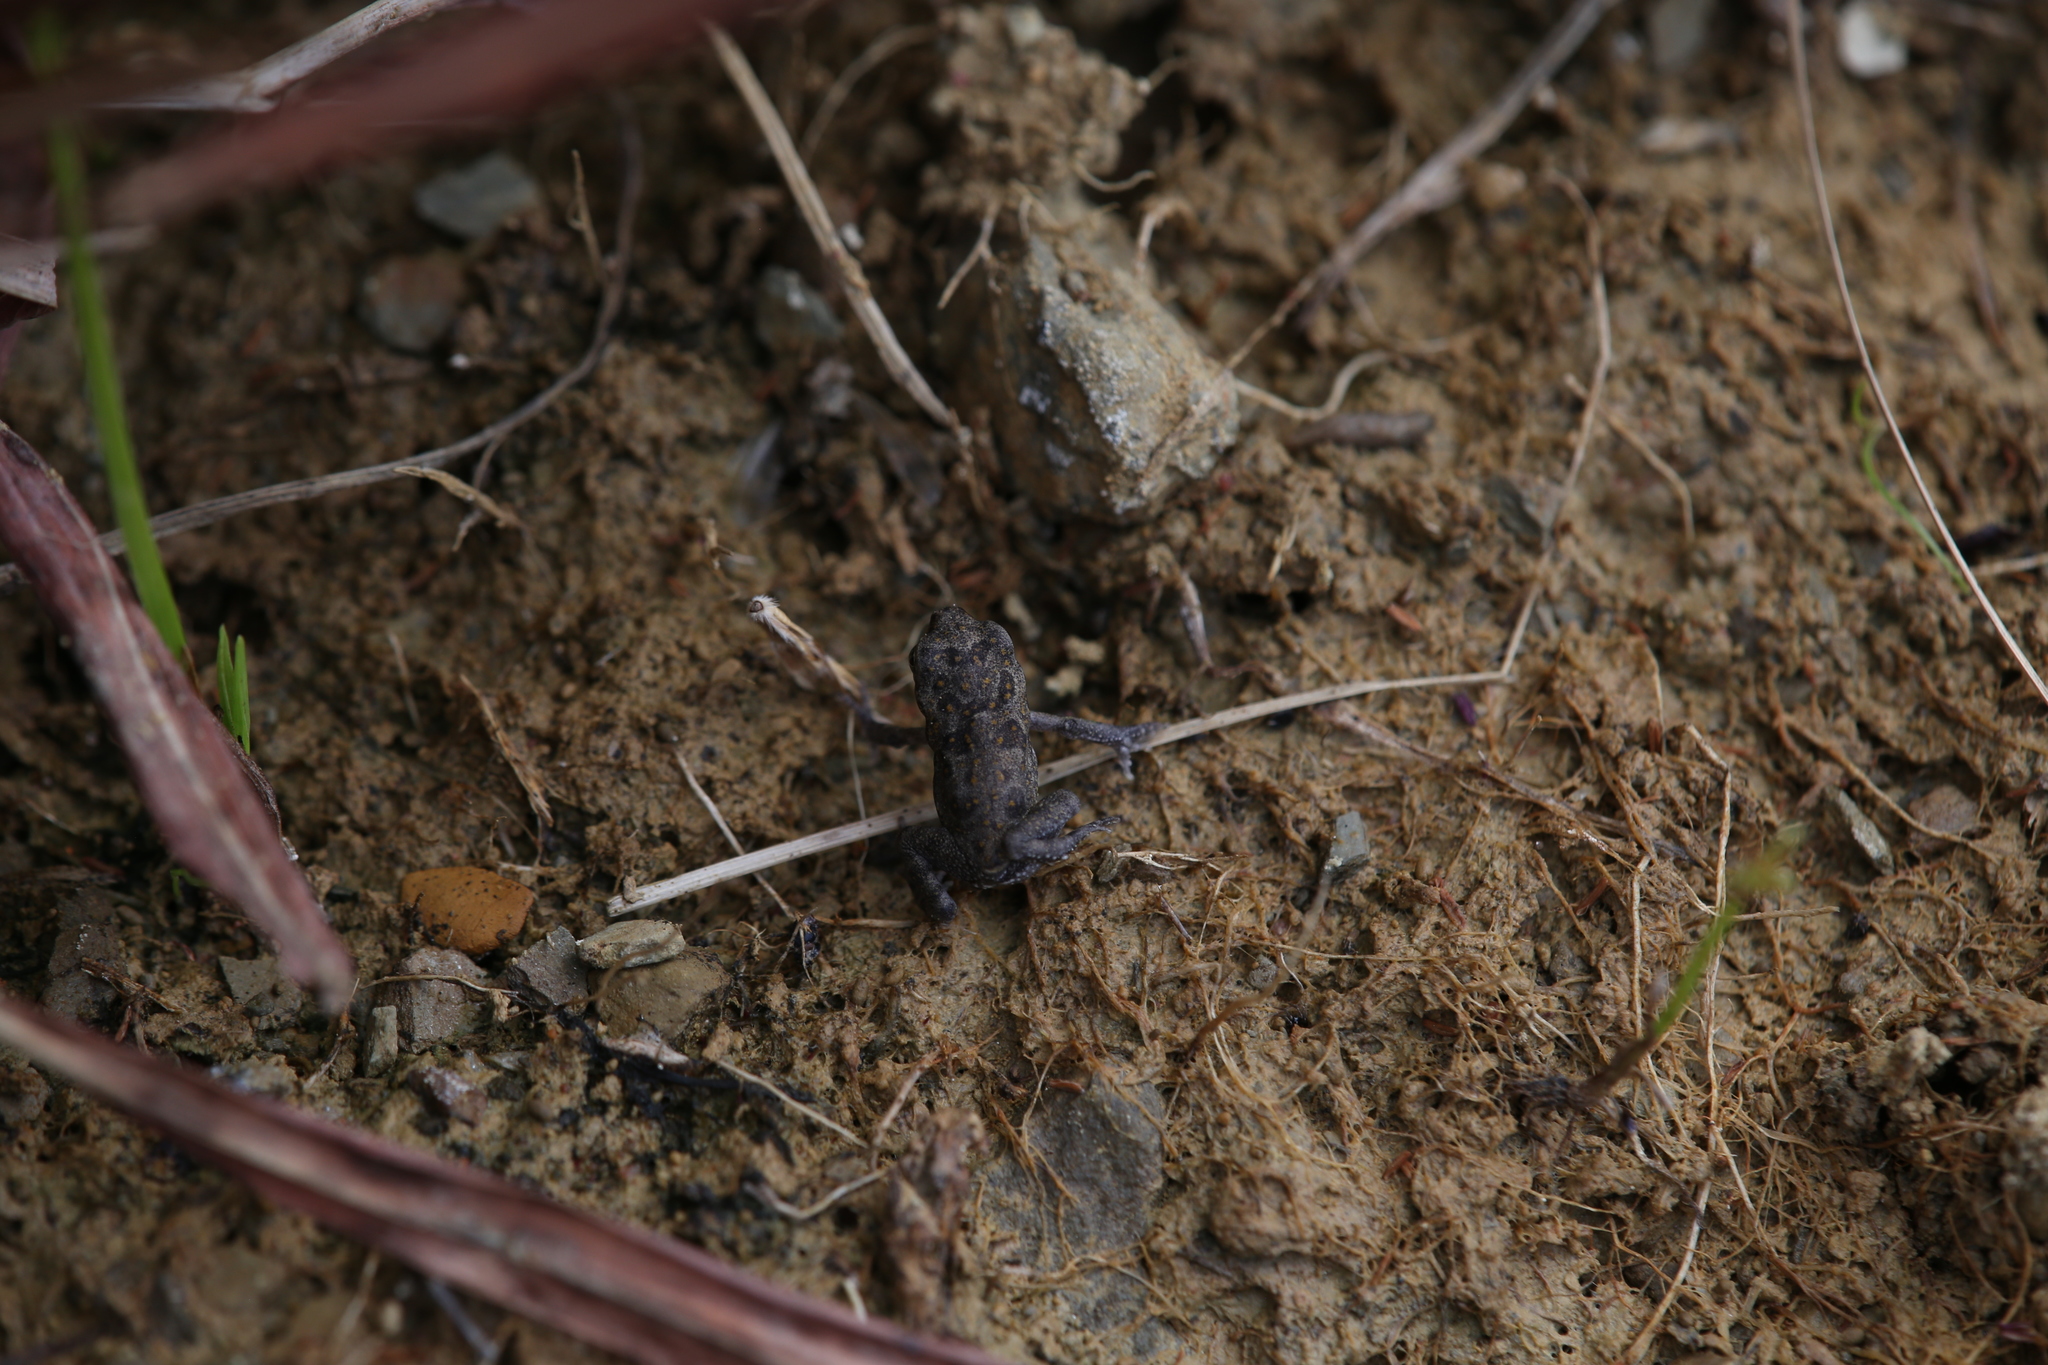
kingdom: Animalia
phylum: Chordata
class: Amphibia
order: Anura
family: Bufonidae
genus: Rhinella
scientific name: Rhinella marina
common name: Cane toad
